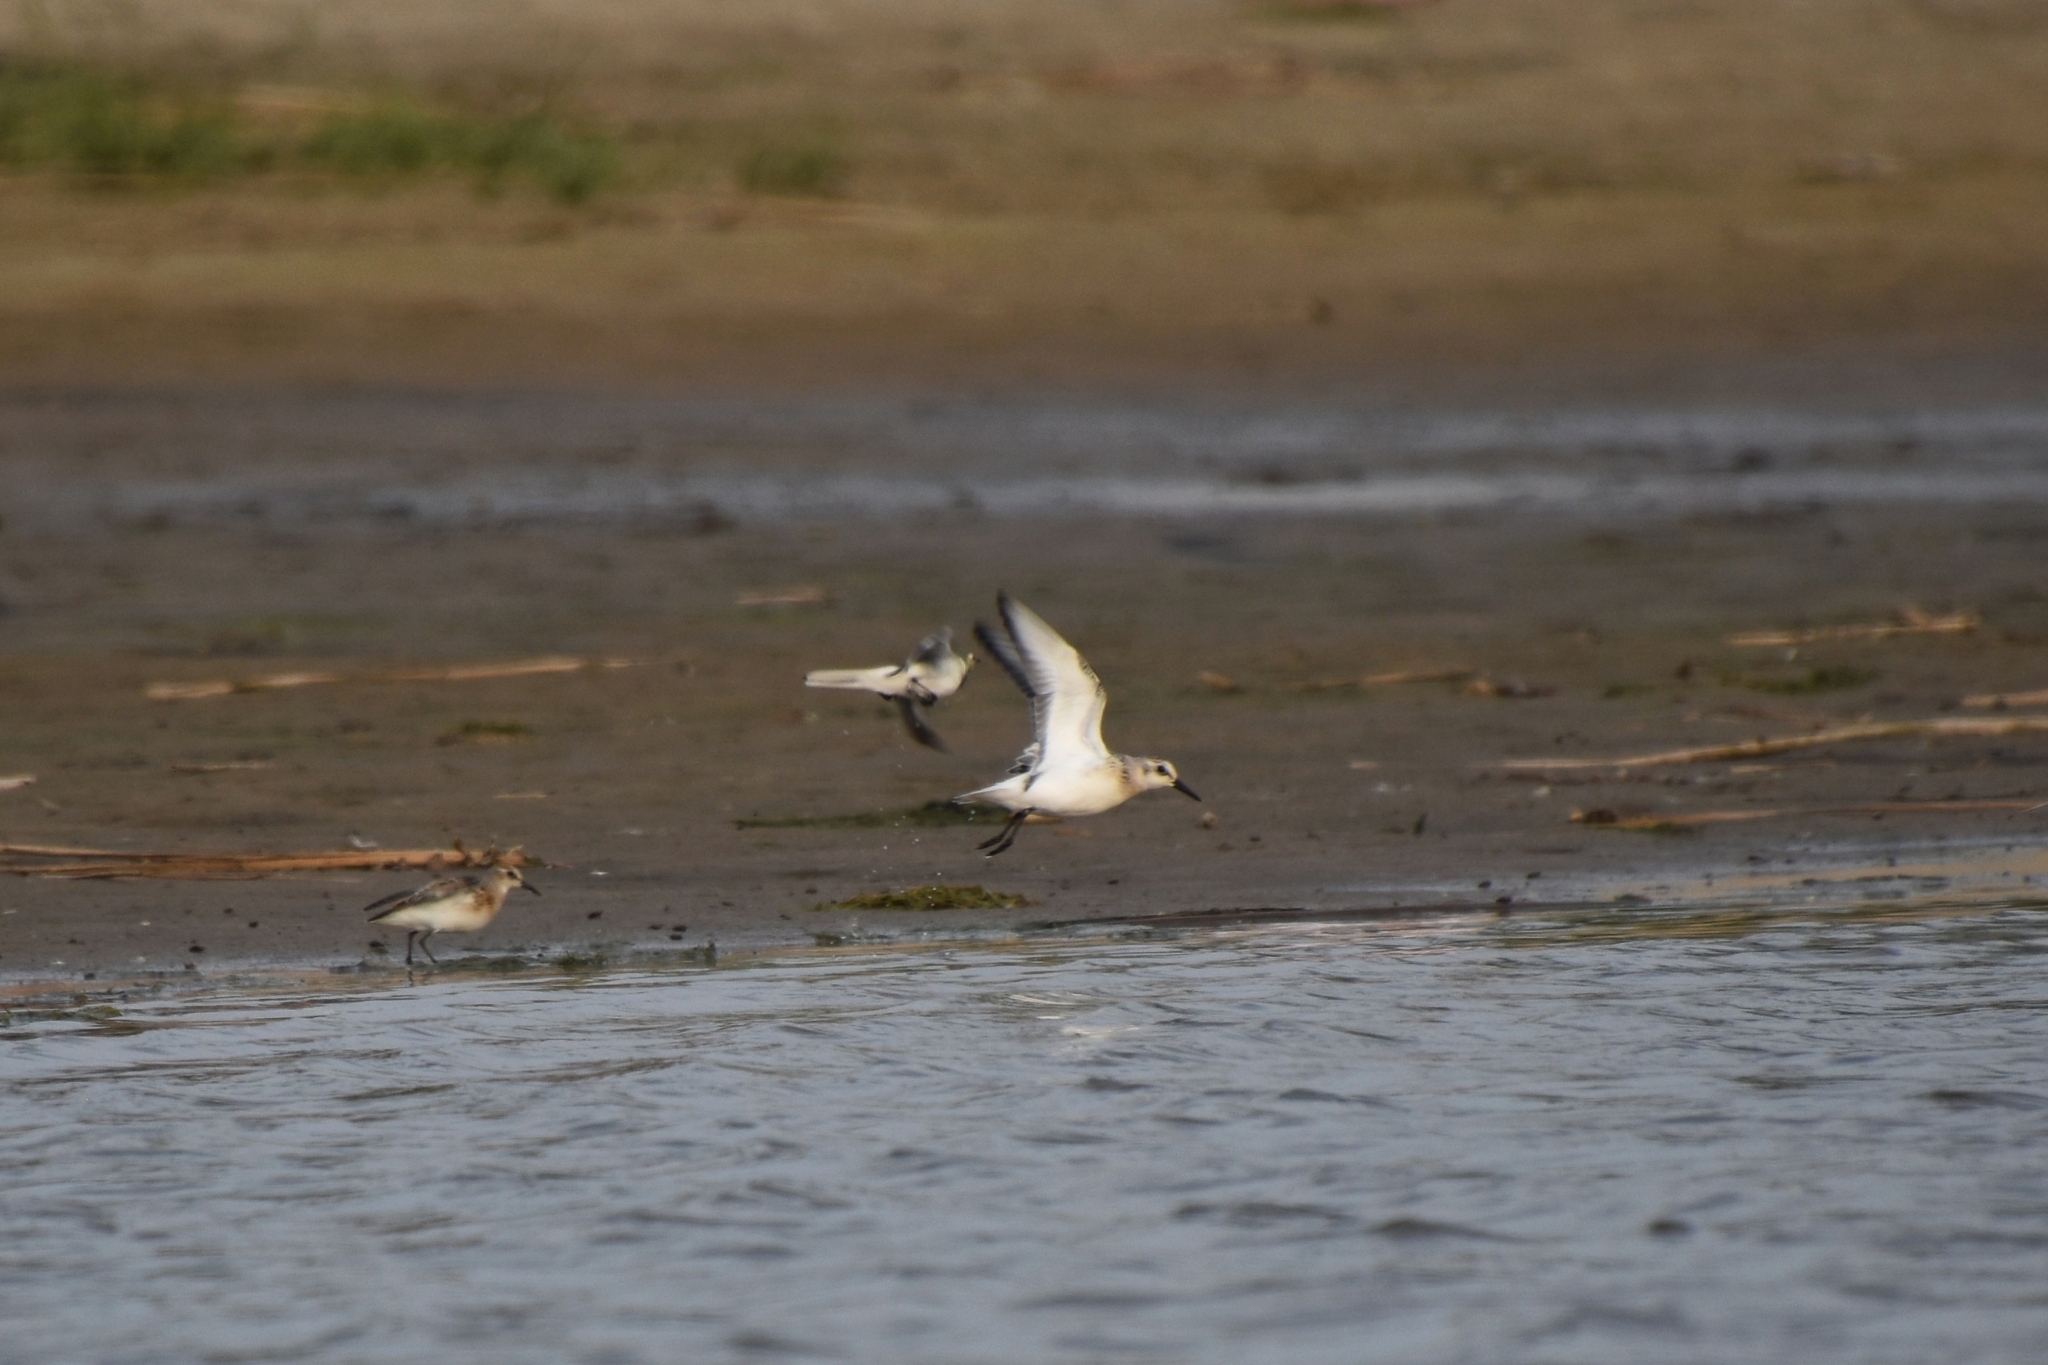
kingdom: Animalia
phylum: Chordata
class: Aves
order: Charadriiformes
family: Scolopacidae
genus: Calidris
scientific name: Calidris alba
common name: Sanderling
